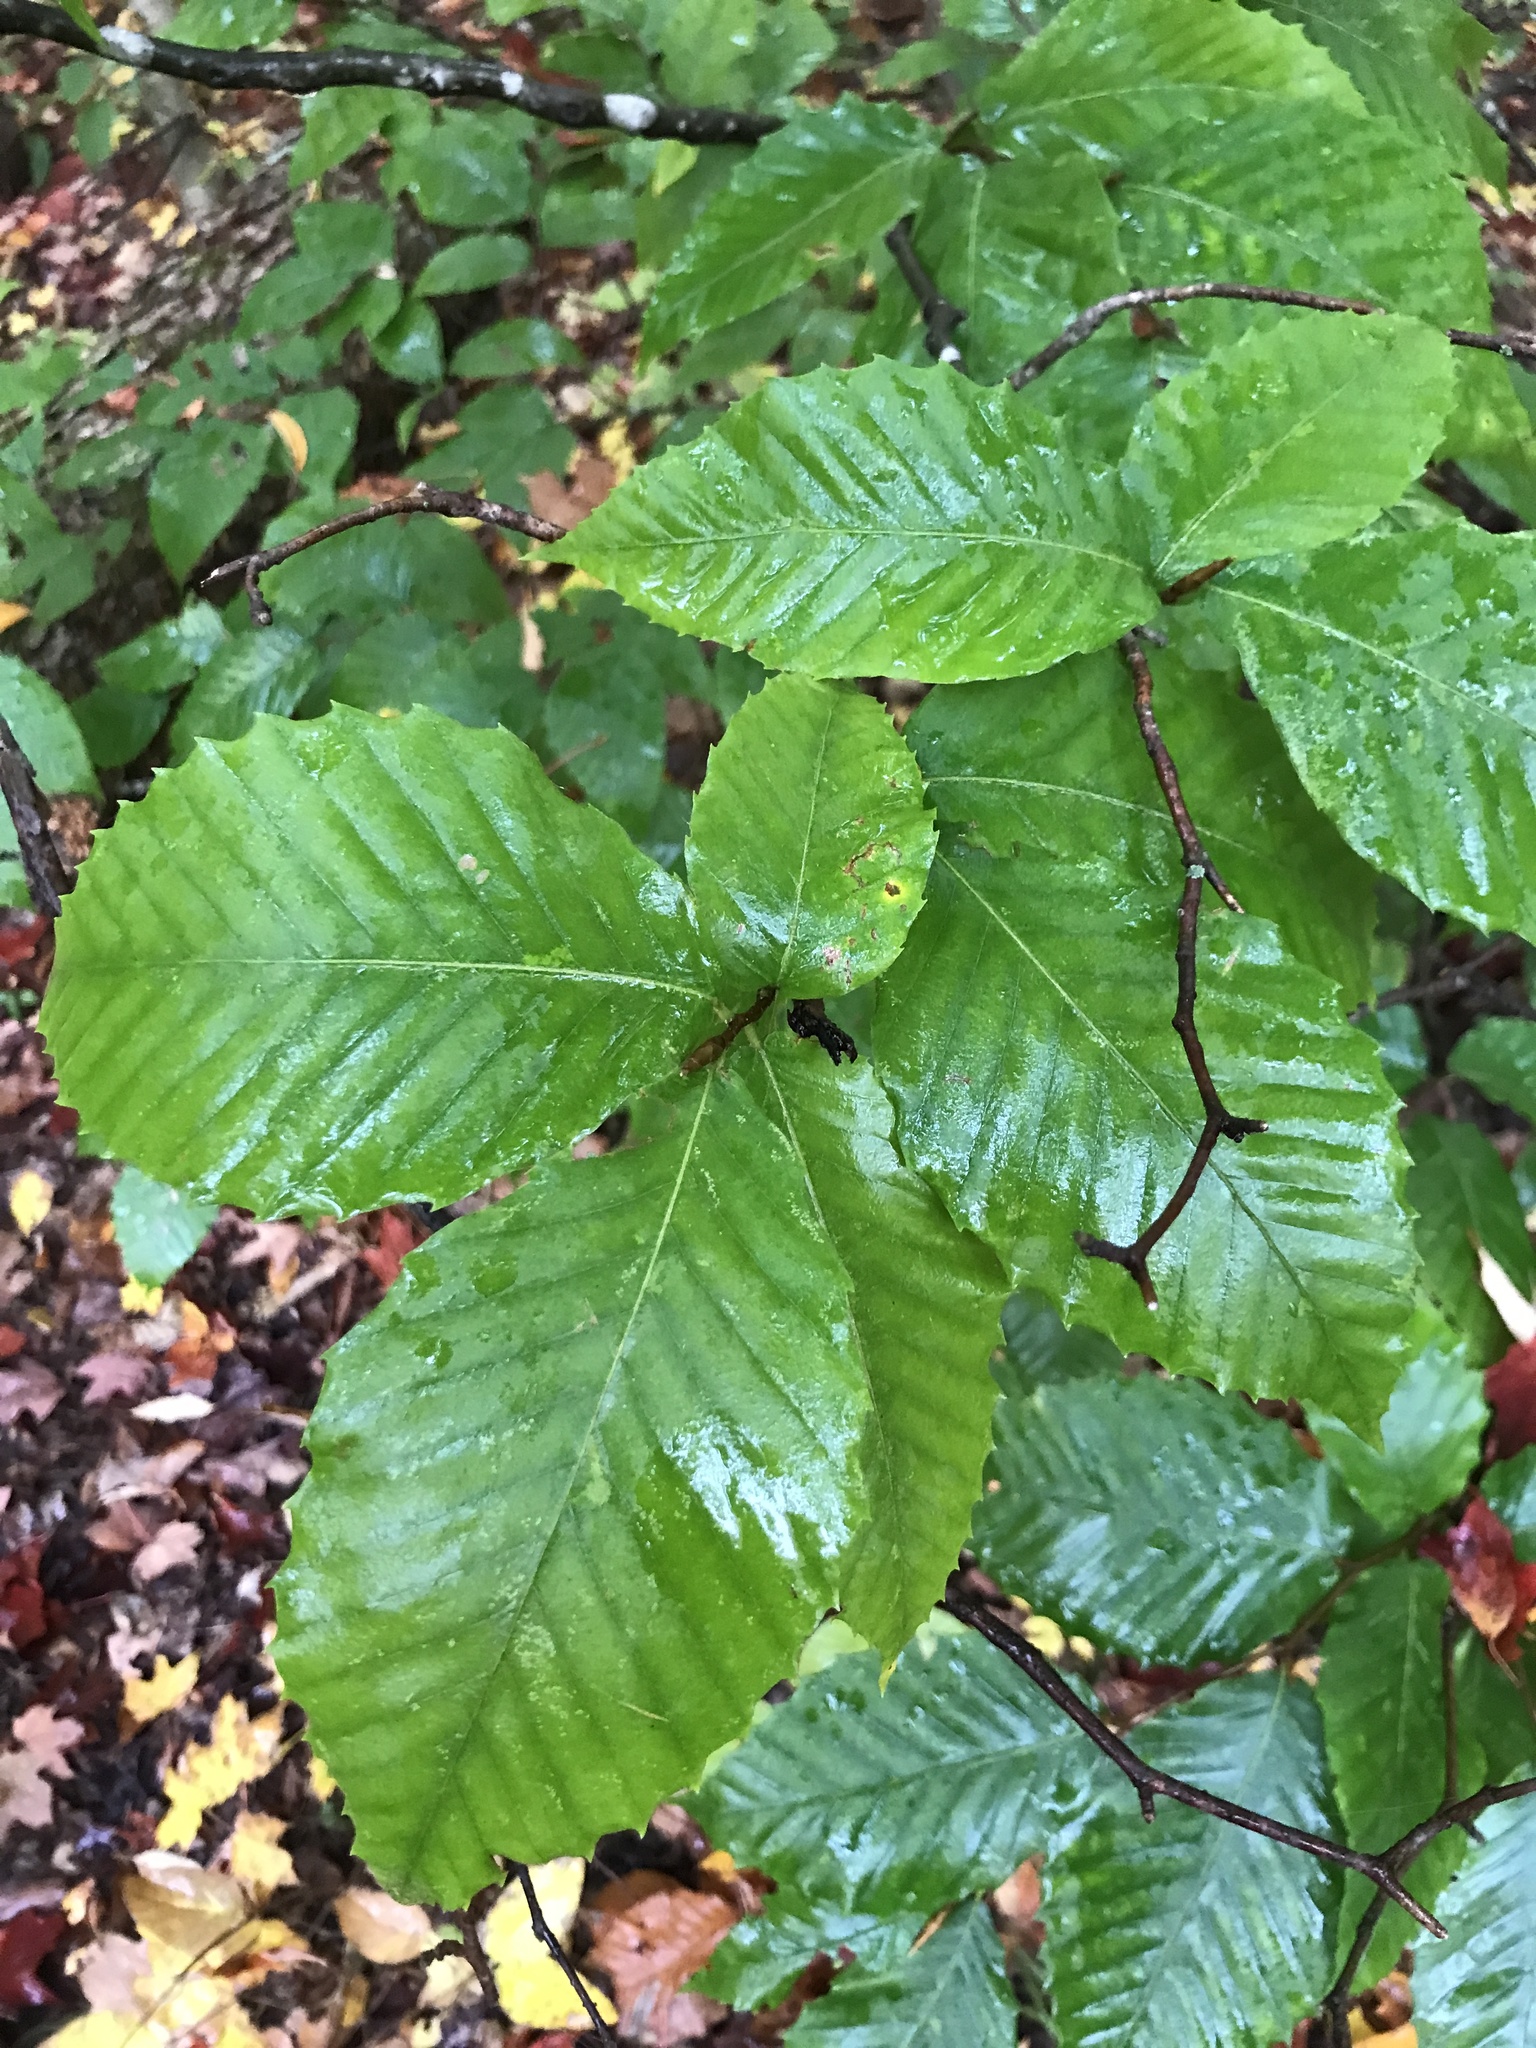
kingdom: Plantae
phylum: Tracheophyta
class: Magnoliopsida
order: Fagales
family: Fagaceae
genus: Fagus
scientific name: Fagus grandifolia
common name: American beech
